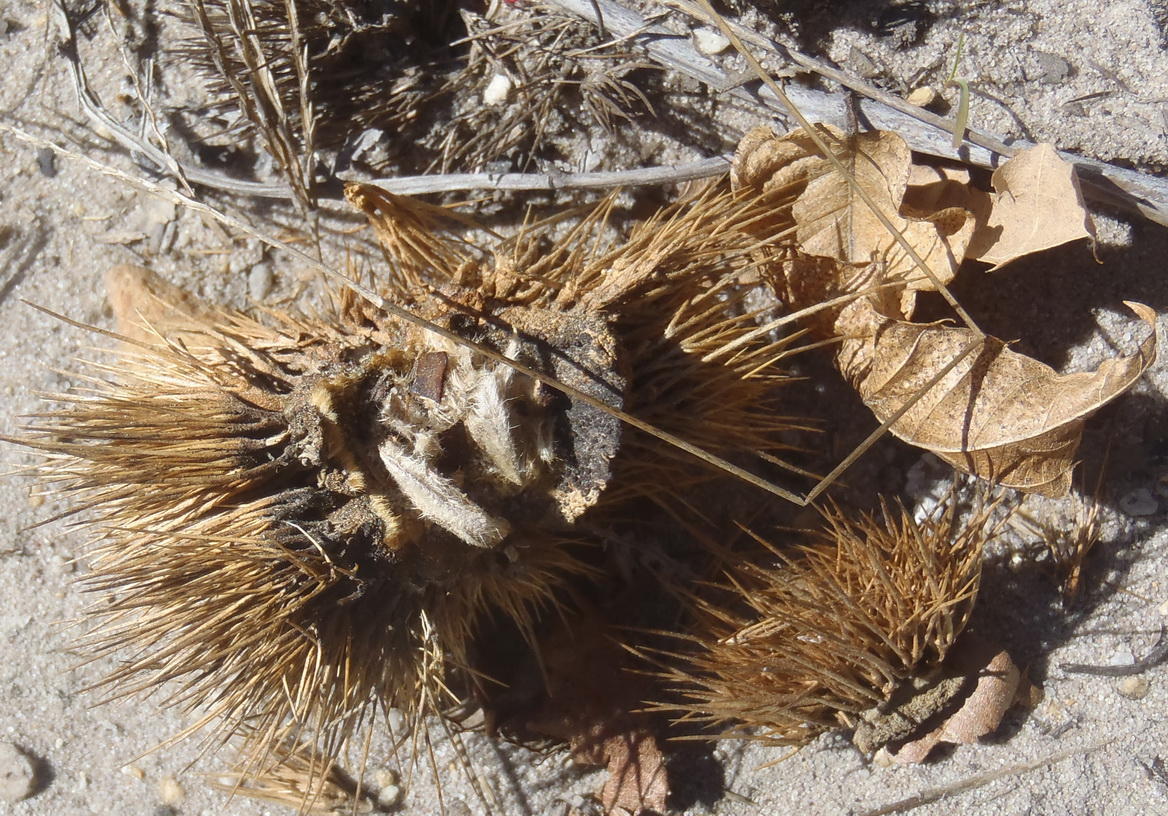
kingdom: Plantae
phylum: Tracheophyta
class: Magnoliopsida
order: Fagales
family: Fagaceae
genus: Castanea
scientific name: Castanea sativa
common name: Sweet chestnut
